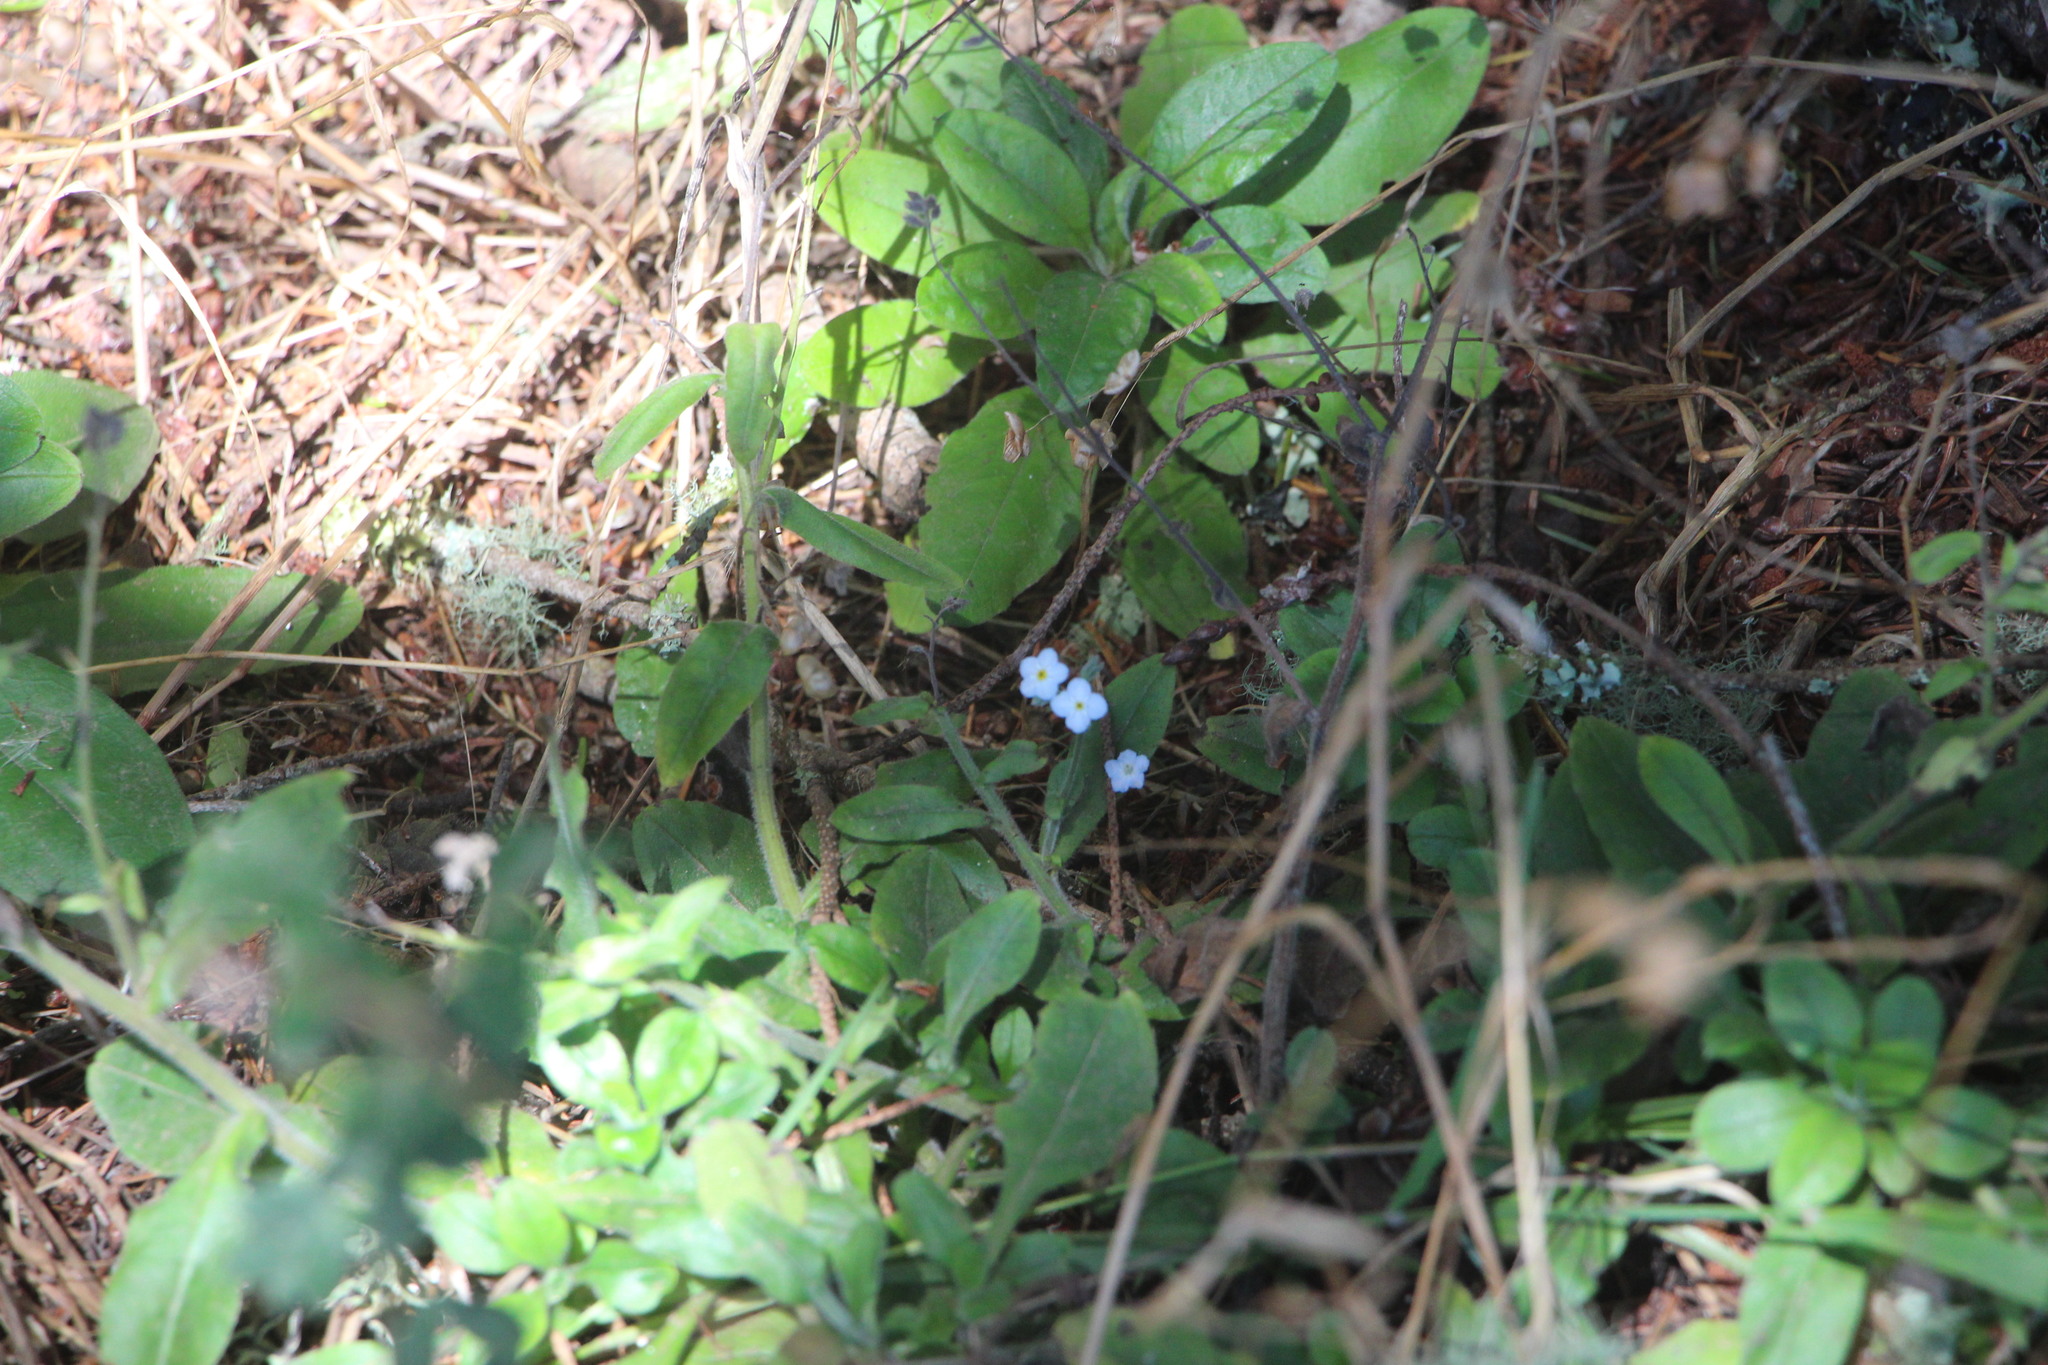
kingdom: Plantae
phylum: Tracheophyta
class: Magnoliopsida
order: Boraginales
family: Boraginaceae
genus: Myosotis
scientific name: Myosotis latifolia
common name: Broadleaf forget-me-not
